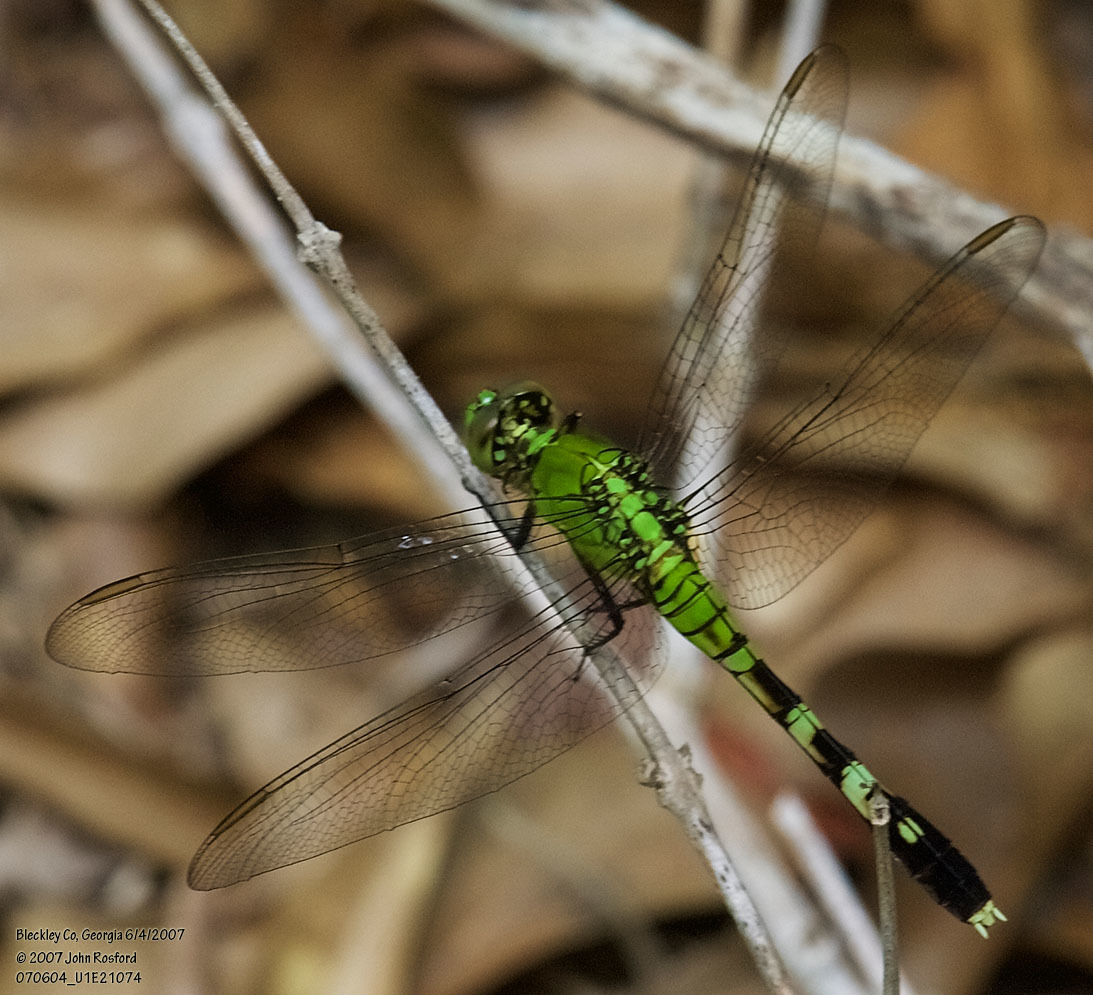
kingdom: Animalia
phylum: Arthropoda
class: Insecta
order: Odonata
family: Libellulidae
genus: Erythemis
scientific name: Erythemis simplicicollis
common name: Eastern pondhawk
